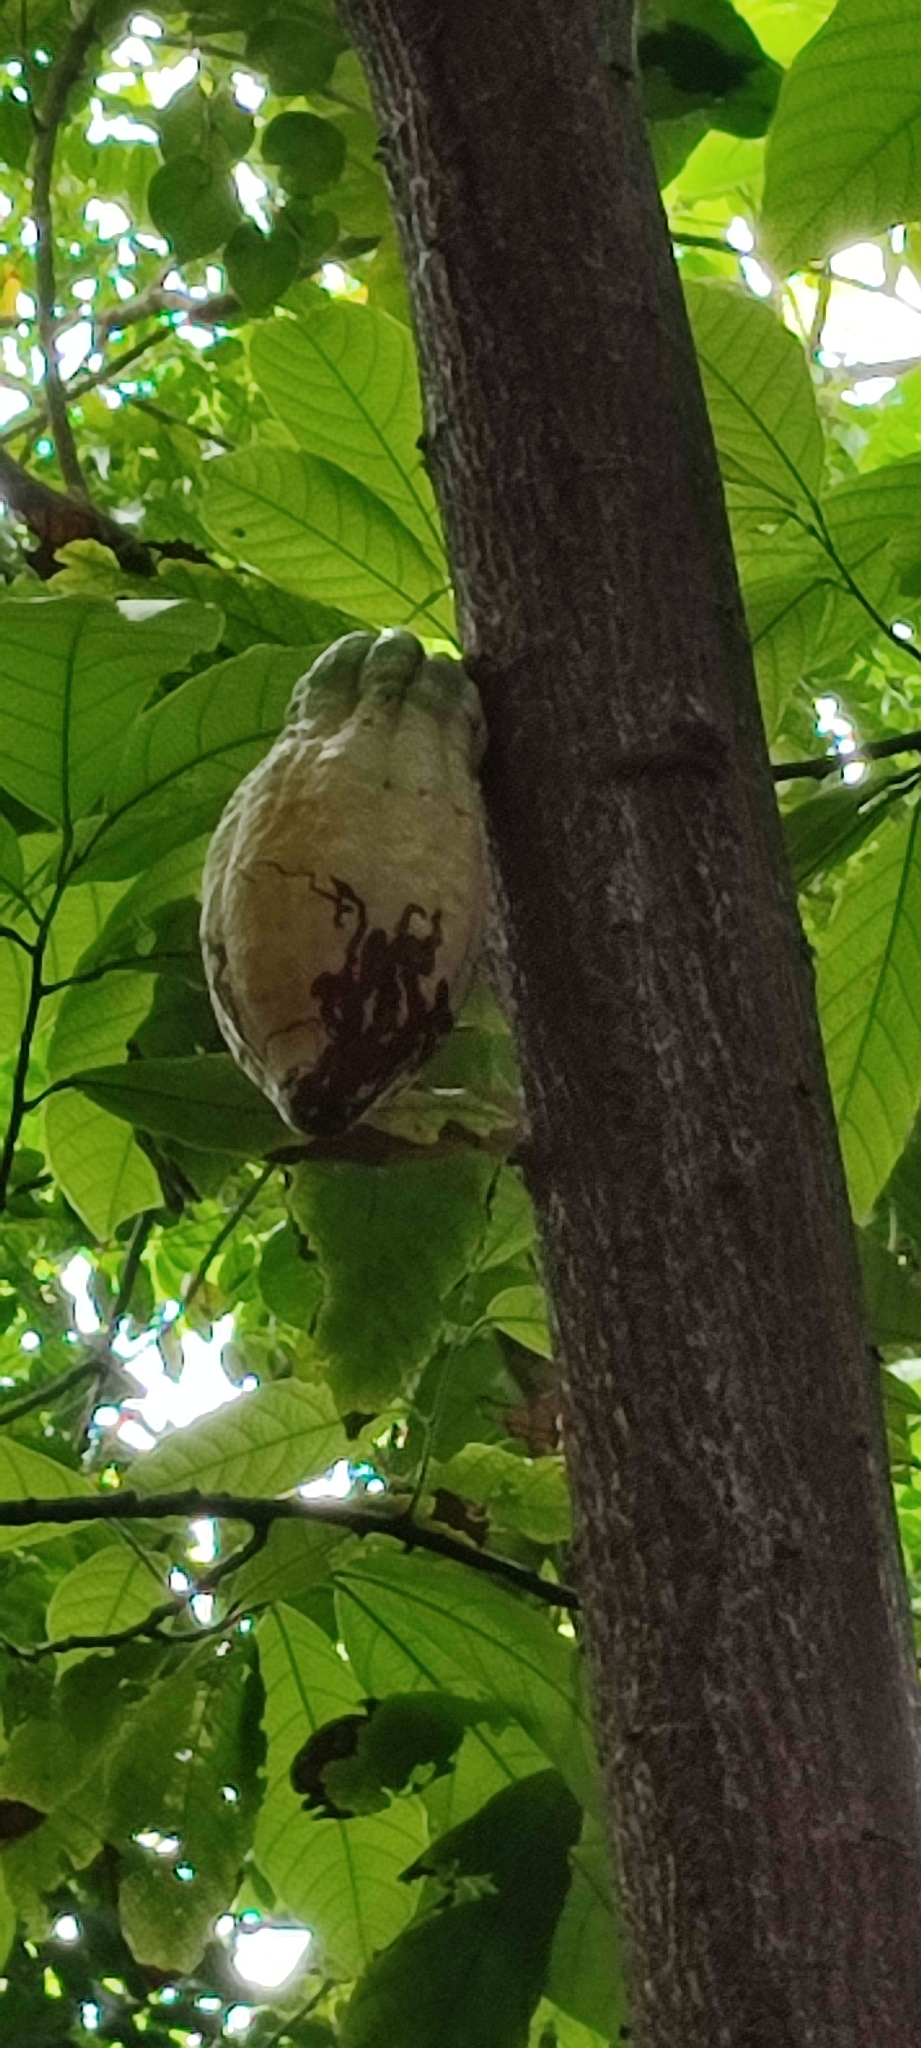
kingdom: Plantae
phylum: Tracheophyta
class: Magnoliopsida
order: Malvales
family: Malvaceae
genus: Theobroma
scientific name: Theobroma cacao
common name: Cocoa
